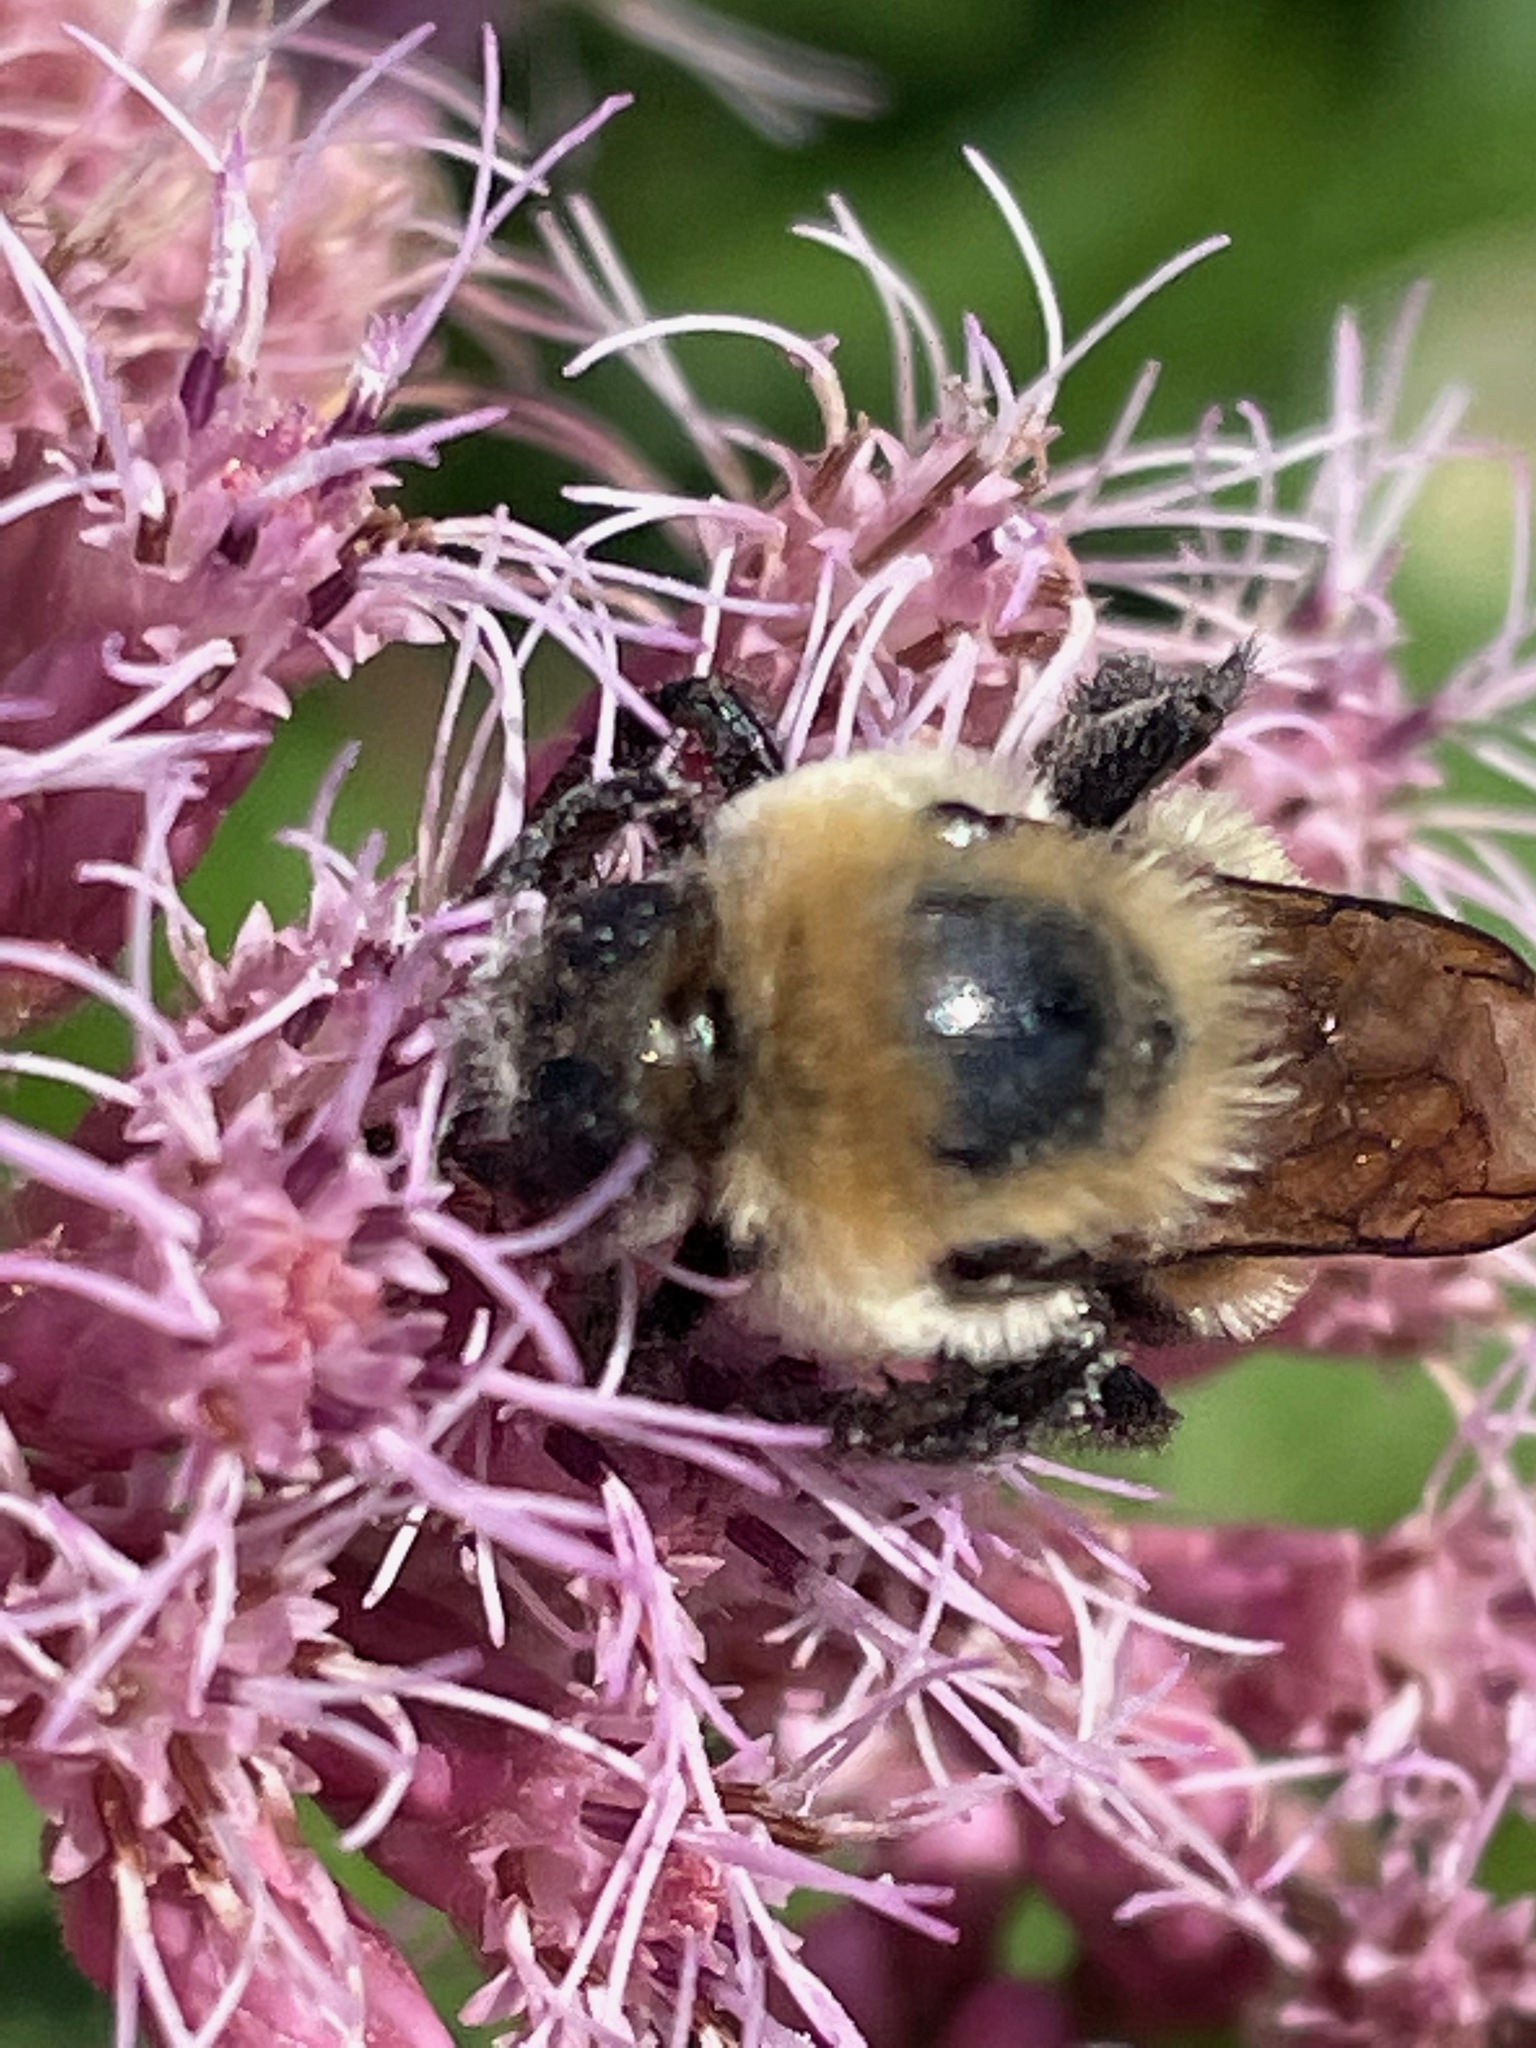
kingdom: Animalia
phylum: Arthropoda
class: Insecta
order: Hymenoptera
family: Apidae
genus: Bombus
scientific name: Bombus griseocollis
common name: Brown-belted bumble bee
